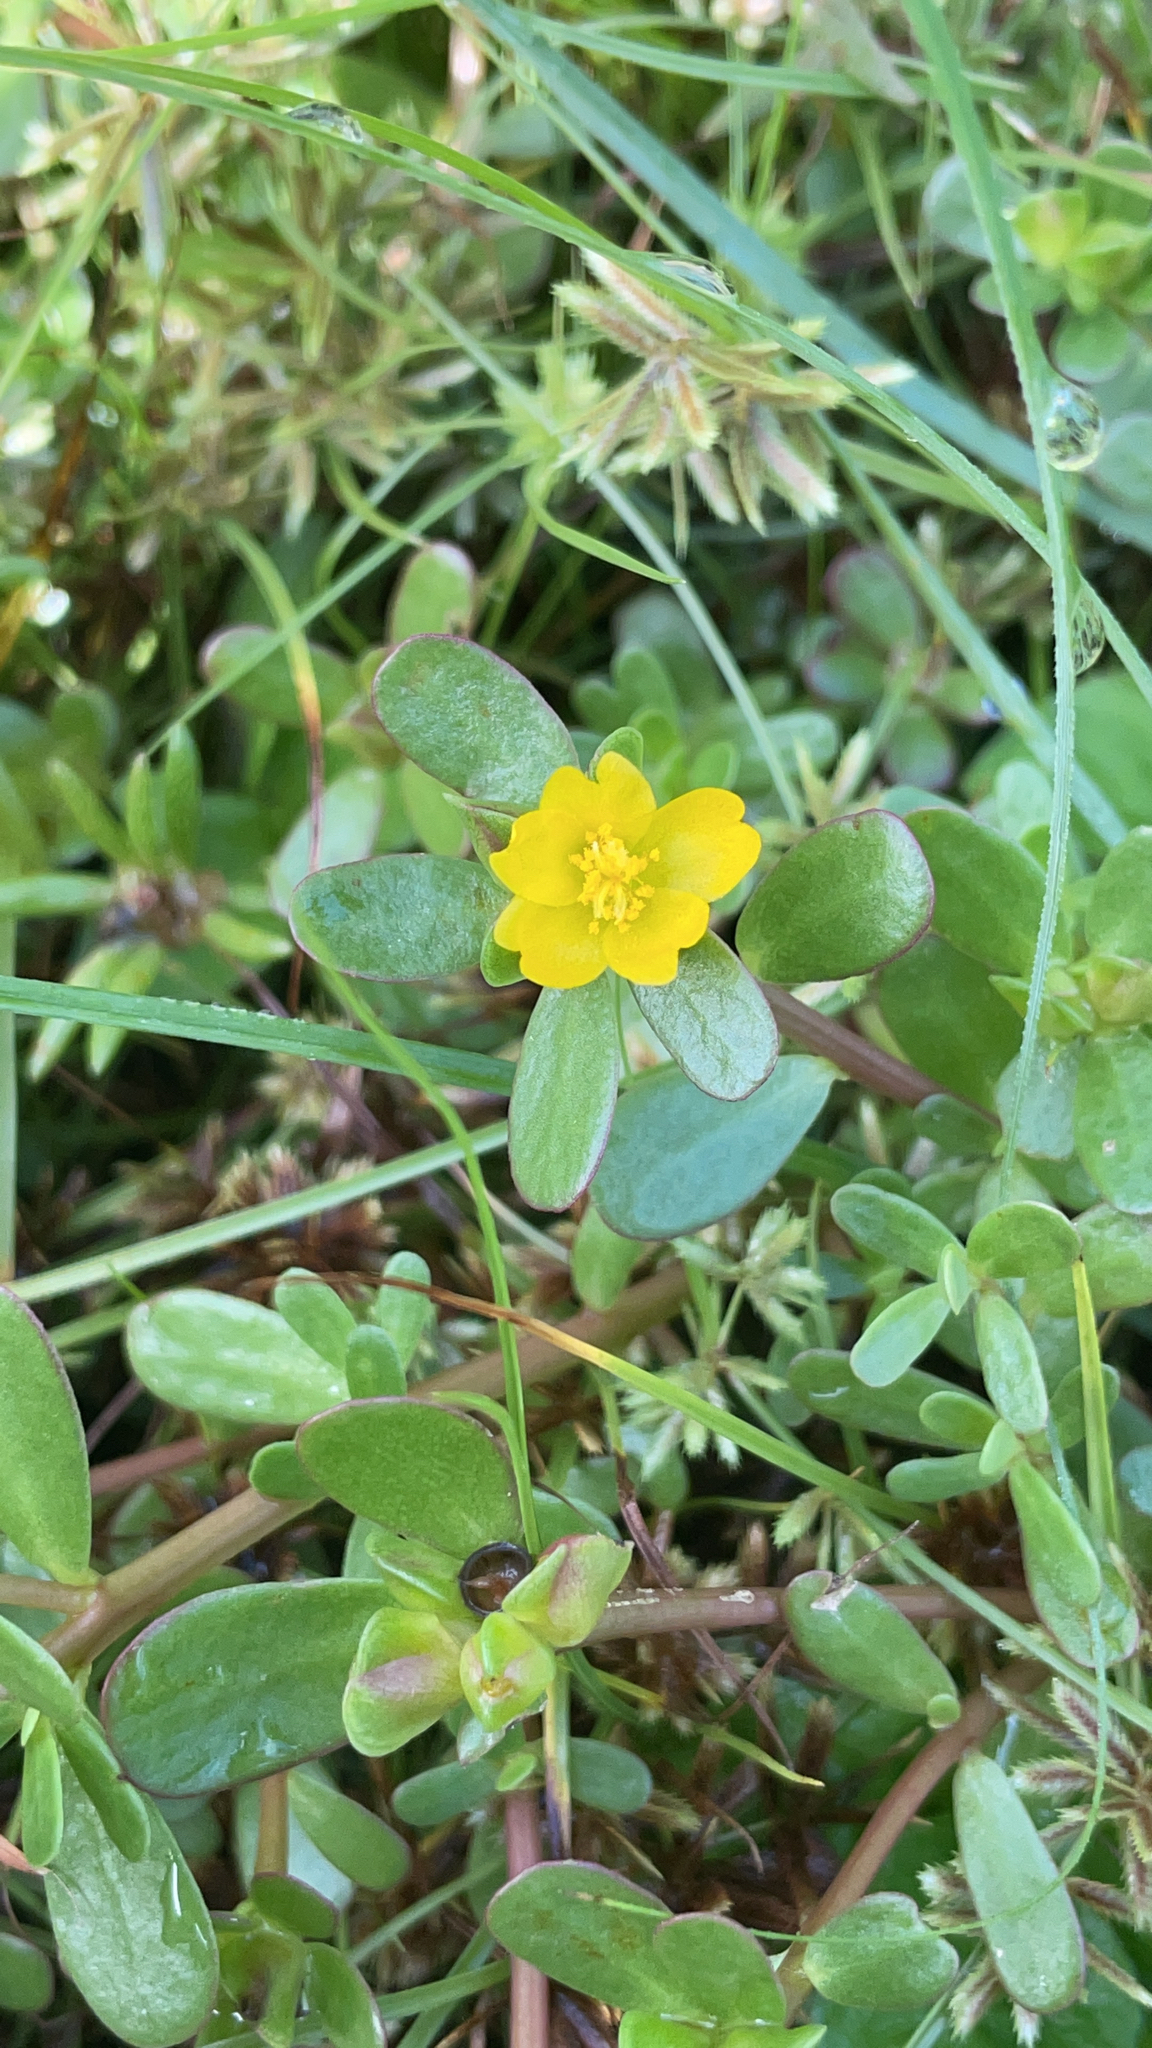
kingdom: Plantae
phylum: Tracheophyta
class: Magnoliopsida
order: Caryophyllales
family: Portulacaceae
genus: Portulaca
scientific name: Portulaca oleracea
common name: Common purslane
